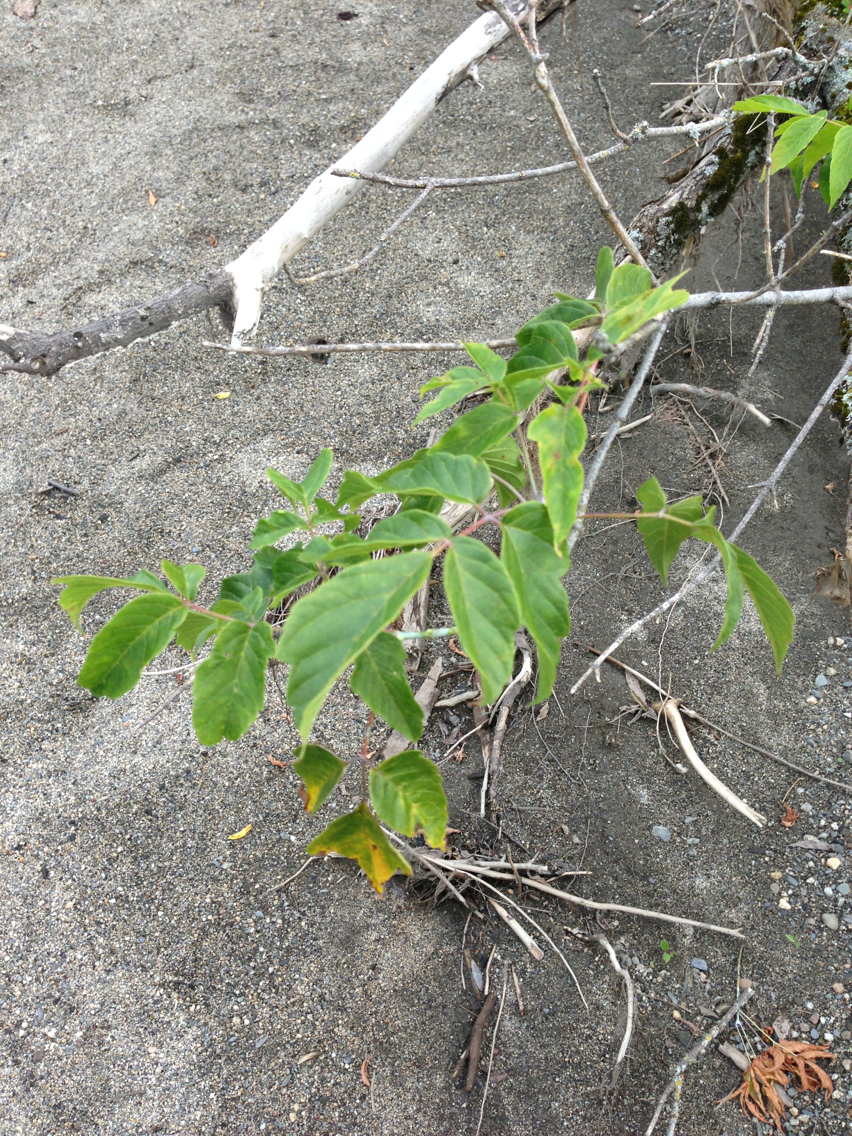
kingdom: Plantae
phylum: Tracheophyta
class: Magnoliopsida
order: Sapindales
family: Sapindaceae
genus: Acer
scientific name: Acer negundo
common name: Ashleaf maple
